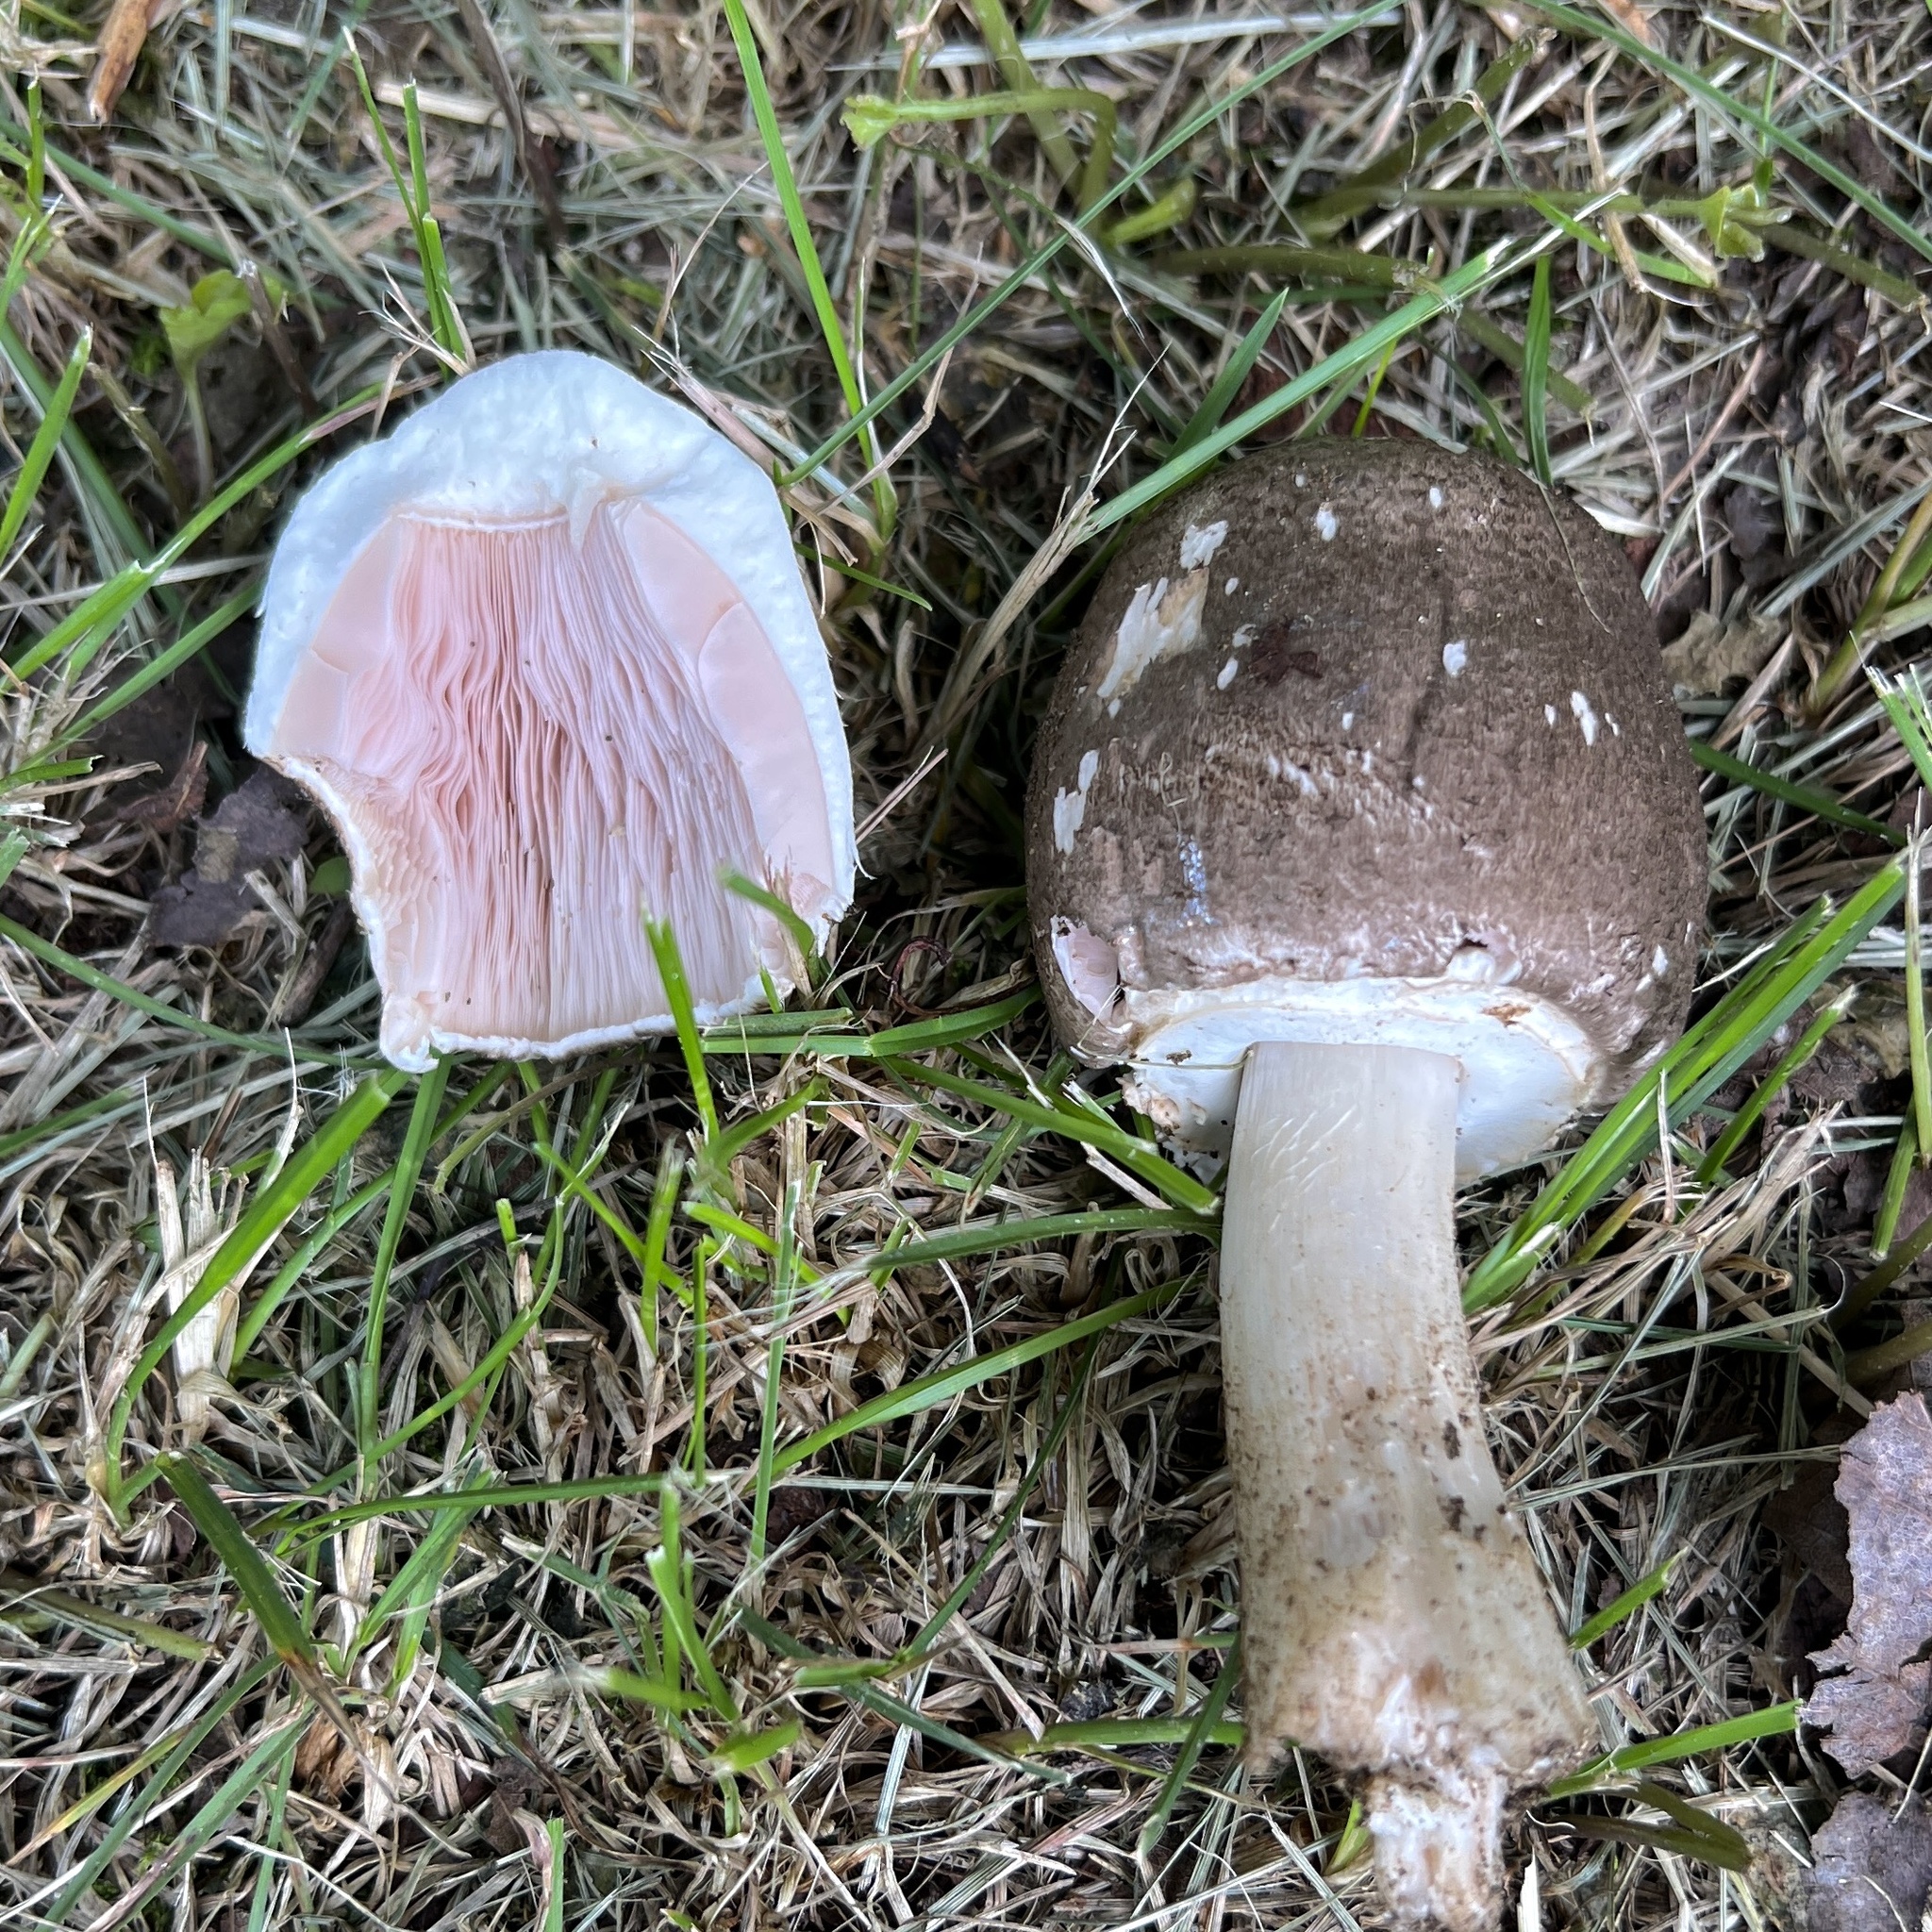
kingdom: Fungi
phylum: Basidiomycota
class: Agaricomycetes
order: Agaricales
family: Agaricaceae
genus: Agaricus
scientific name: Agaricus placomyces
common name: Inky mushroom
